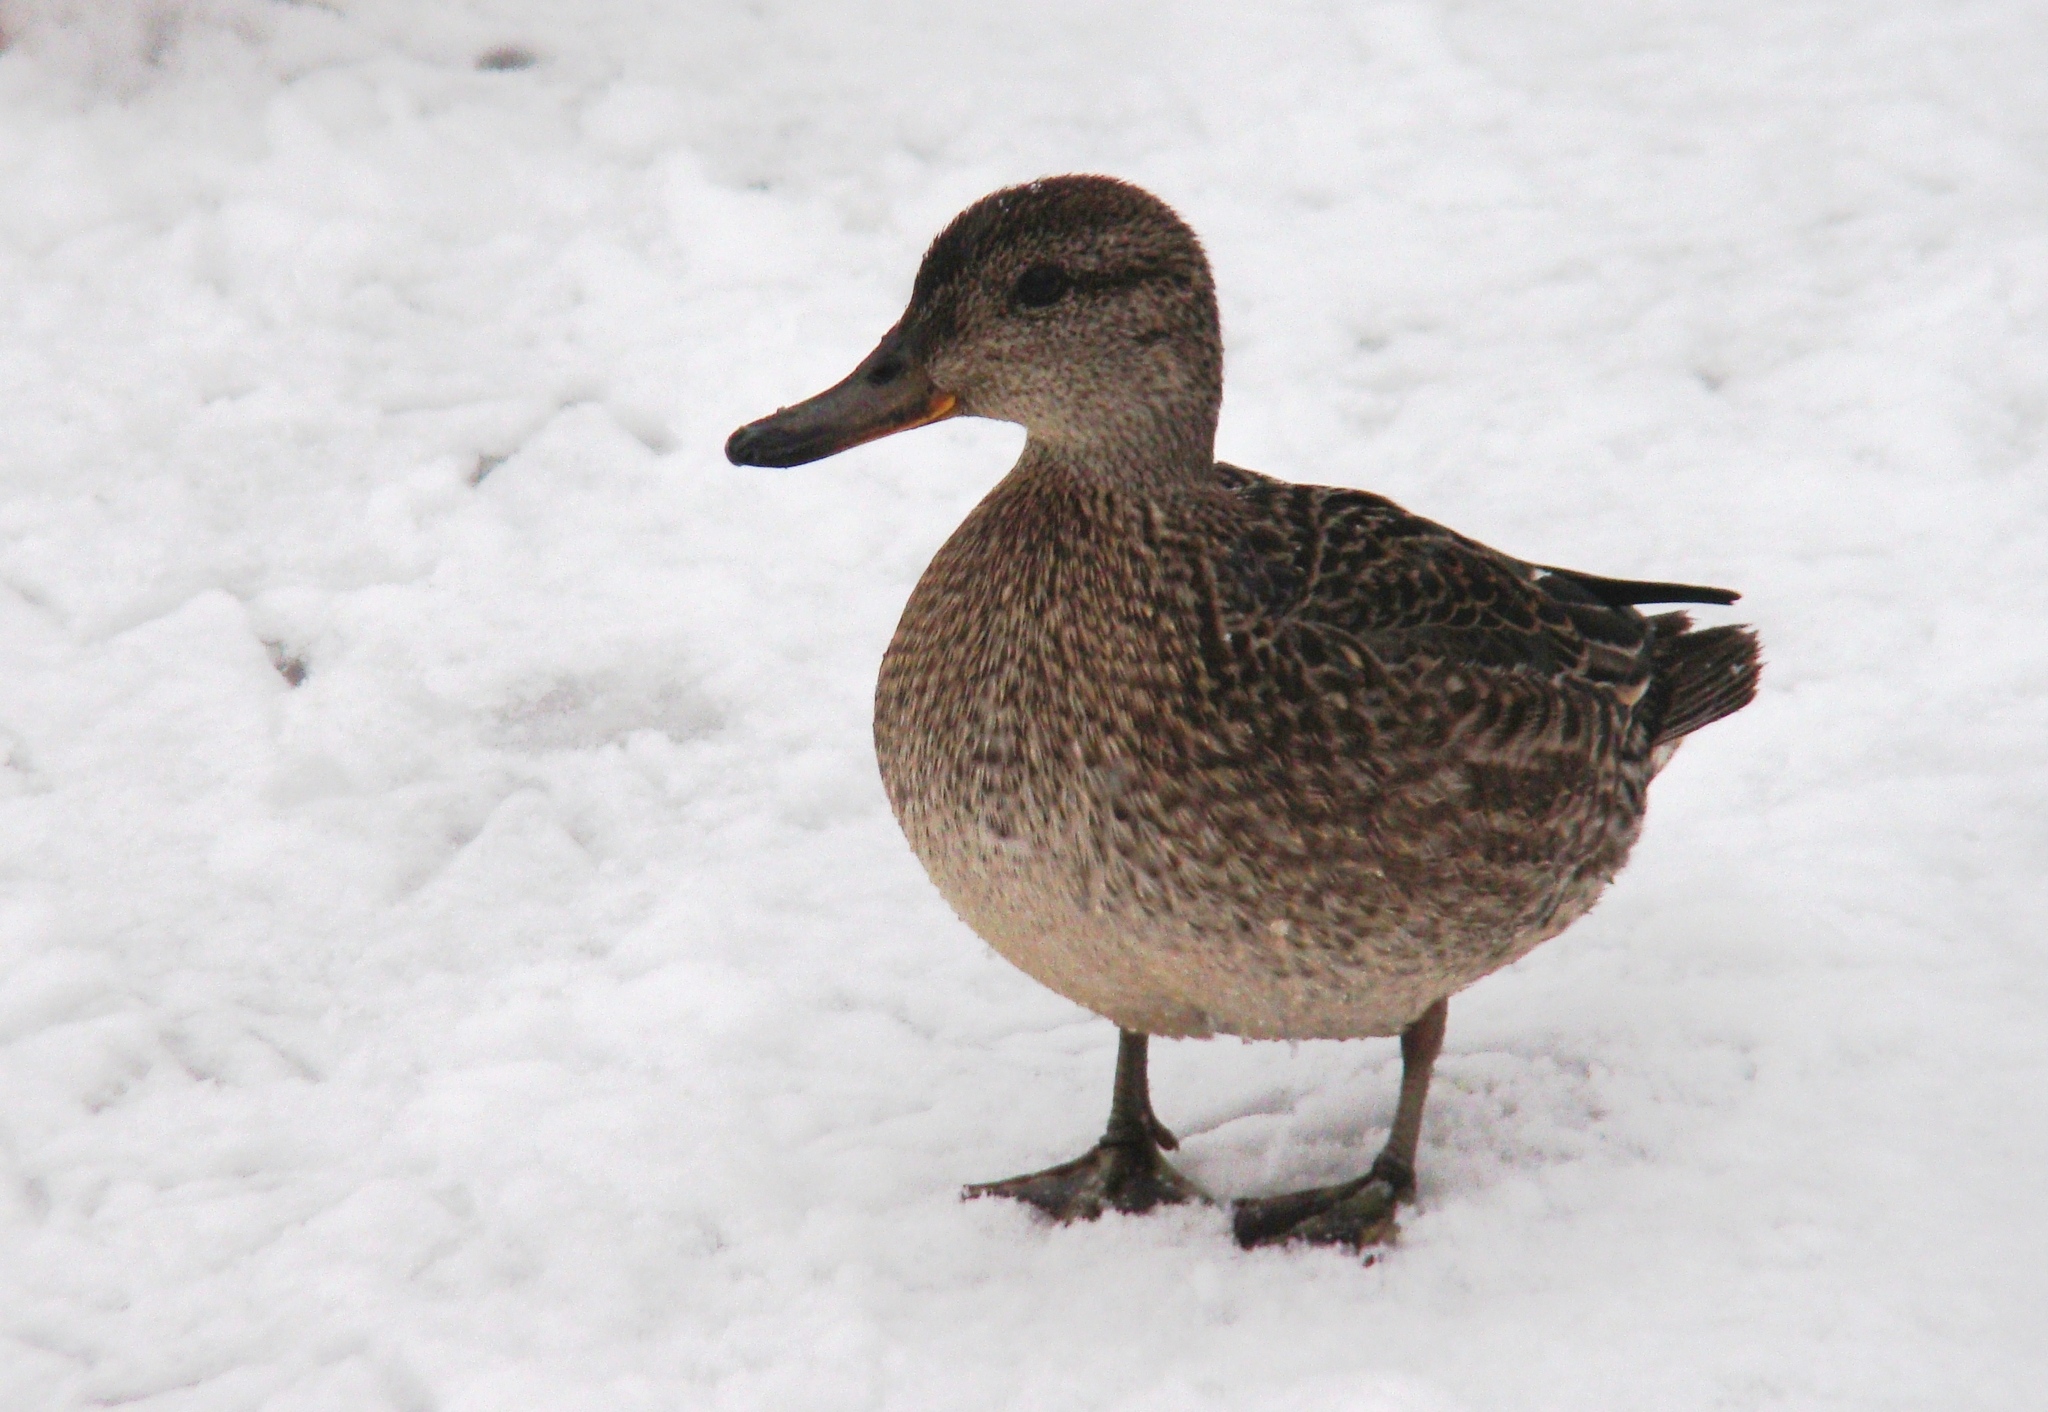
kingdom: Animalia
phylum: Chordata
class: Aves
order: Anseriformes
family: Anatidae
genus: Anas
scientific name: Anas crecca
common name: Eurasian teal
